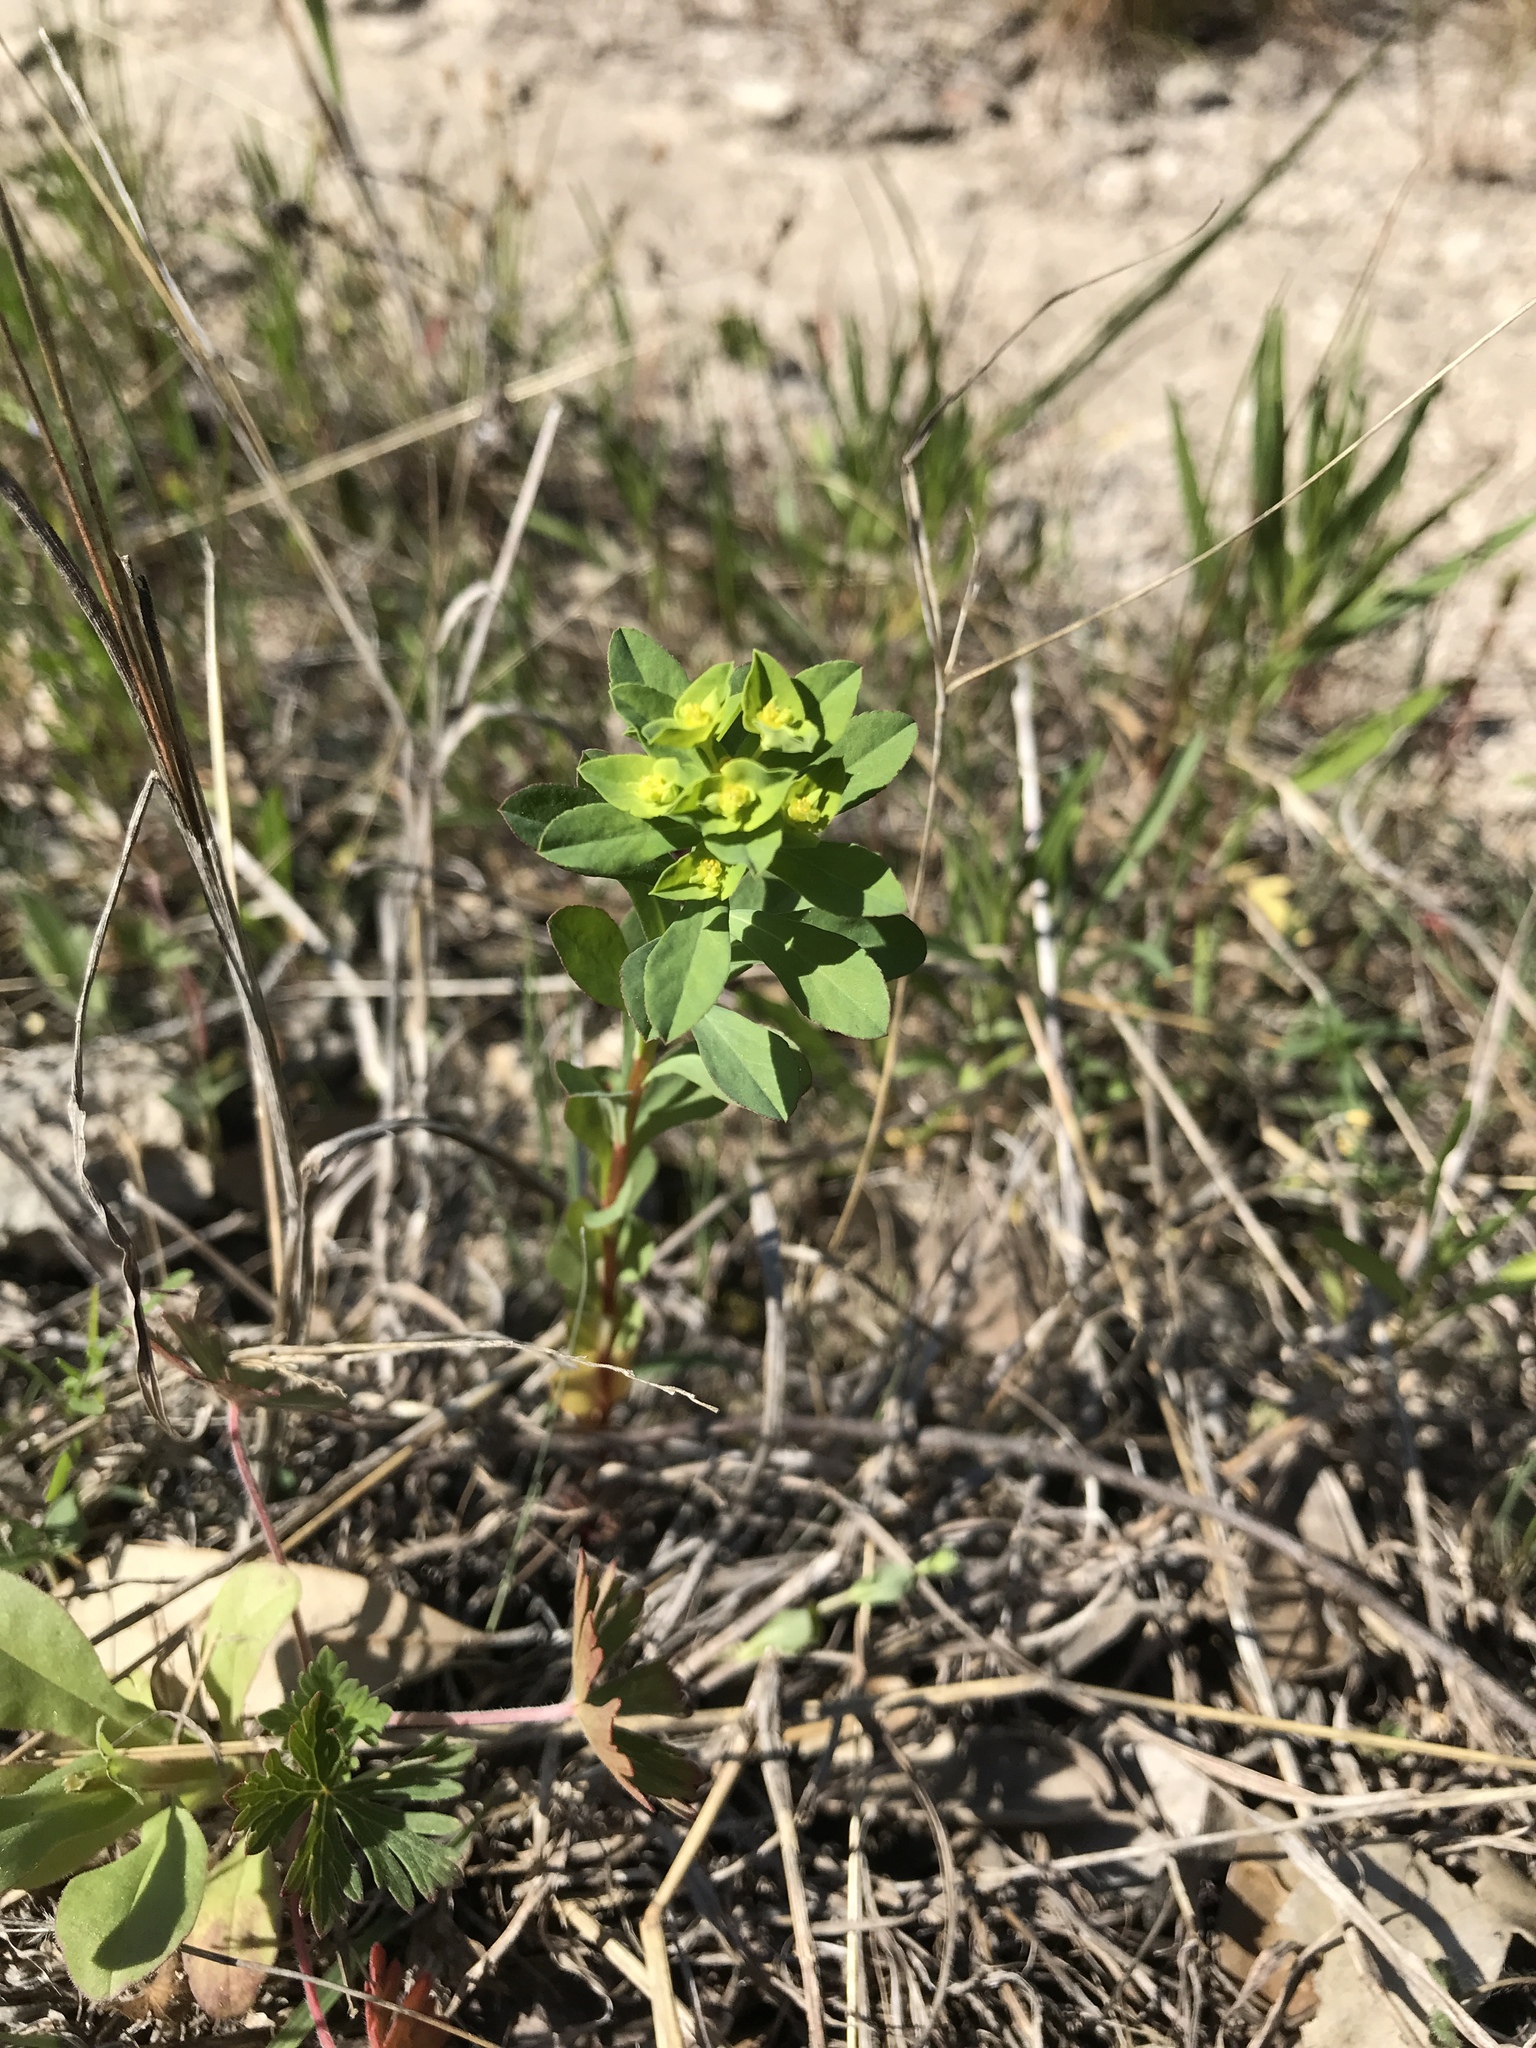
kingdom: Plantae
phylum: Tracheophyta
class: Magnoliopsida
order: Malpighiales
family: Euphorbiaceae
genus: Euphorbia
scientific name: Euphorbia spathulata
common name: Blunt spurge
